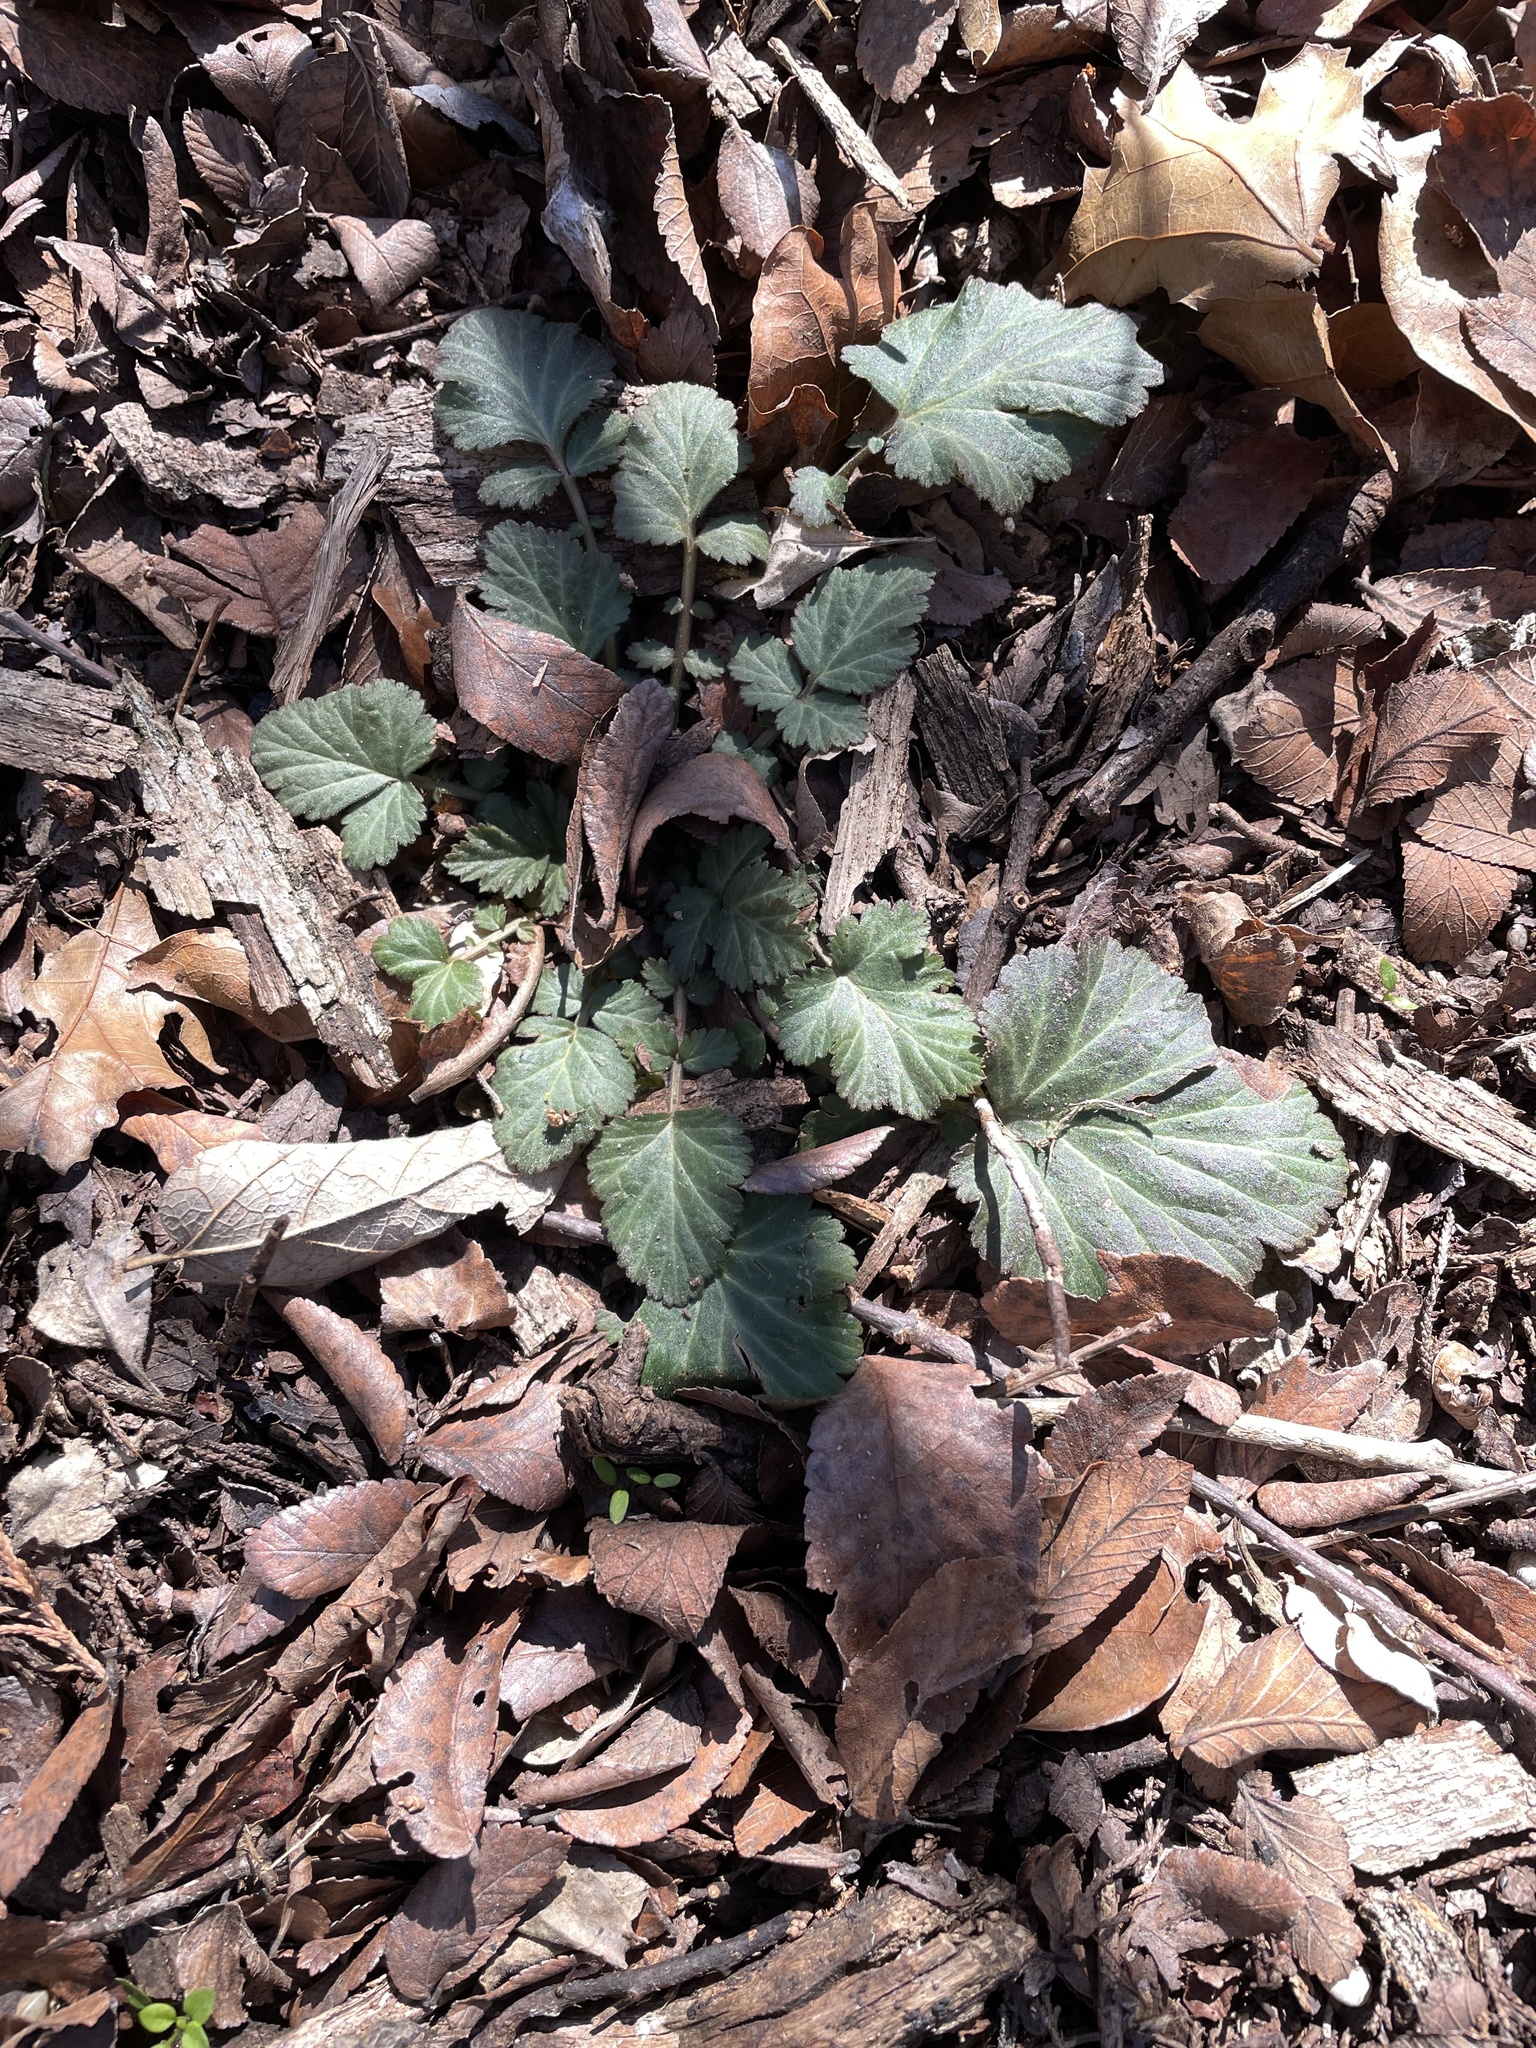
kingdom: Plantae
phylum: Tracheophyta
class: Magnoliopsida
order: Rosales
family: Rosaceae
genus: Geum
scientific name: Geum canadense
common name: White avens
